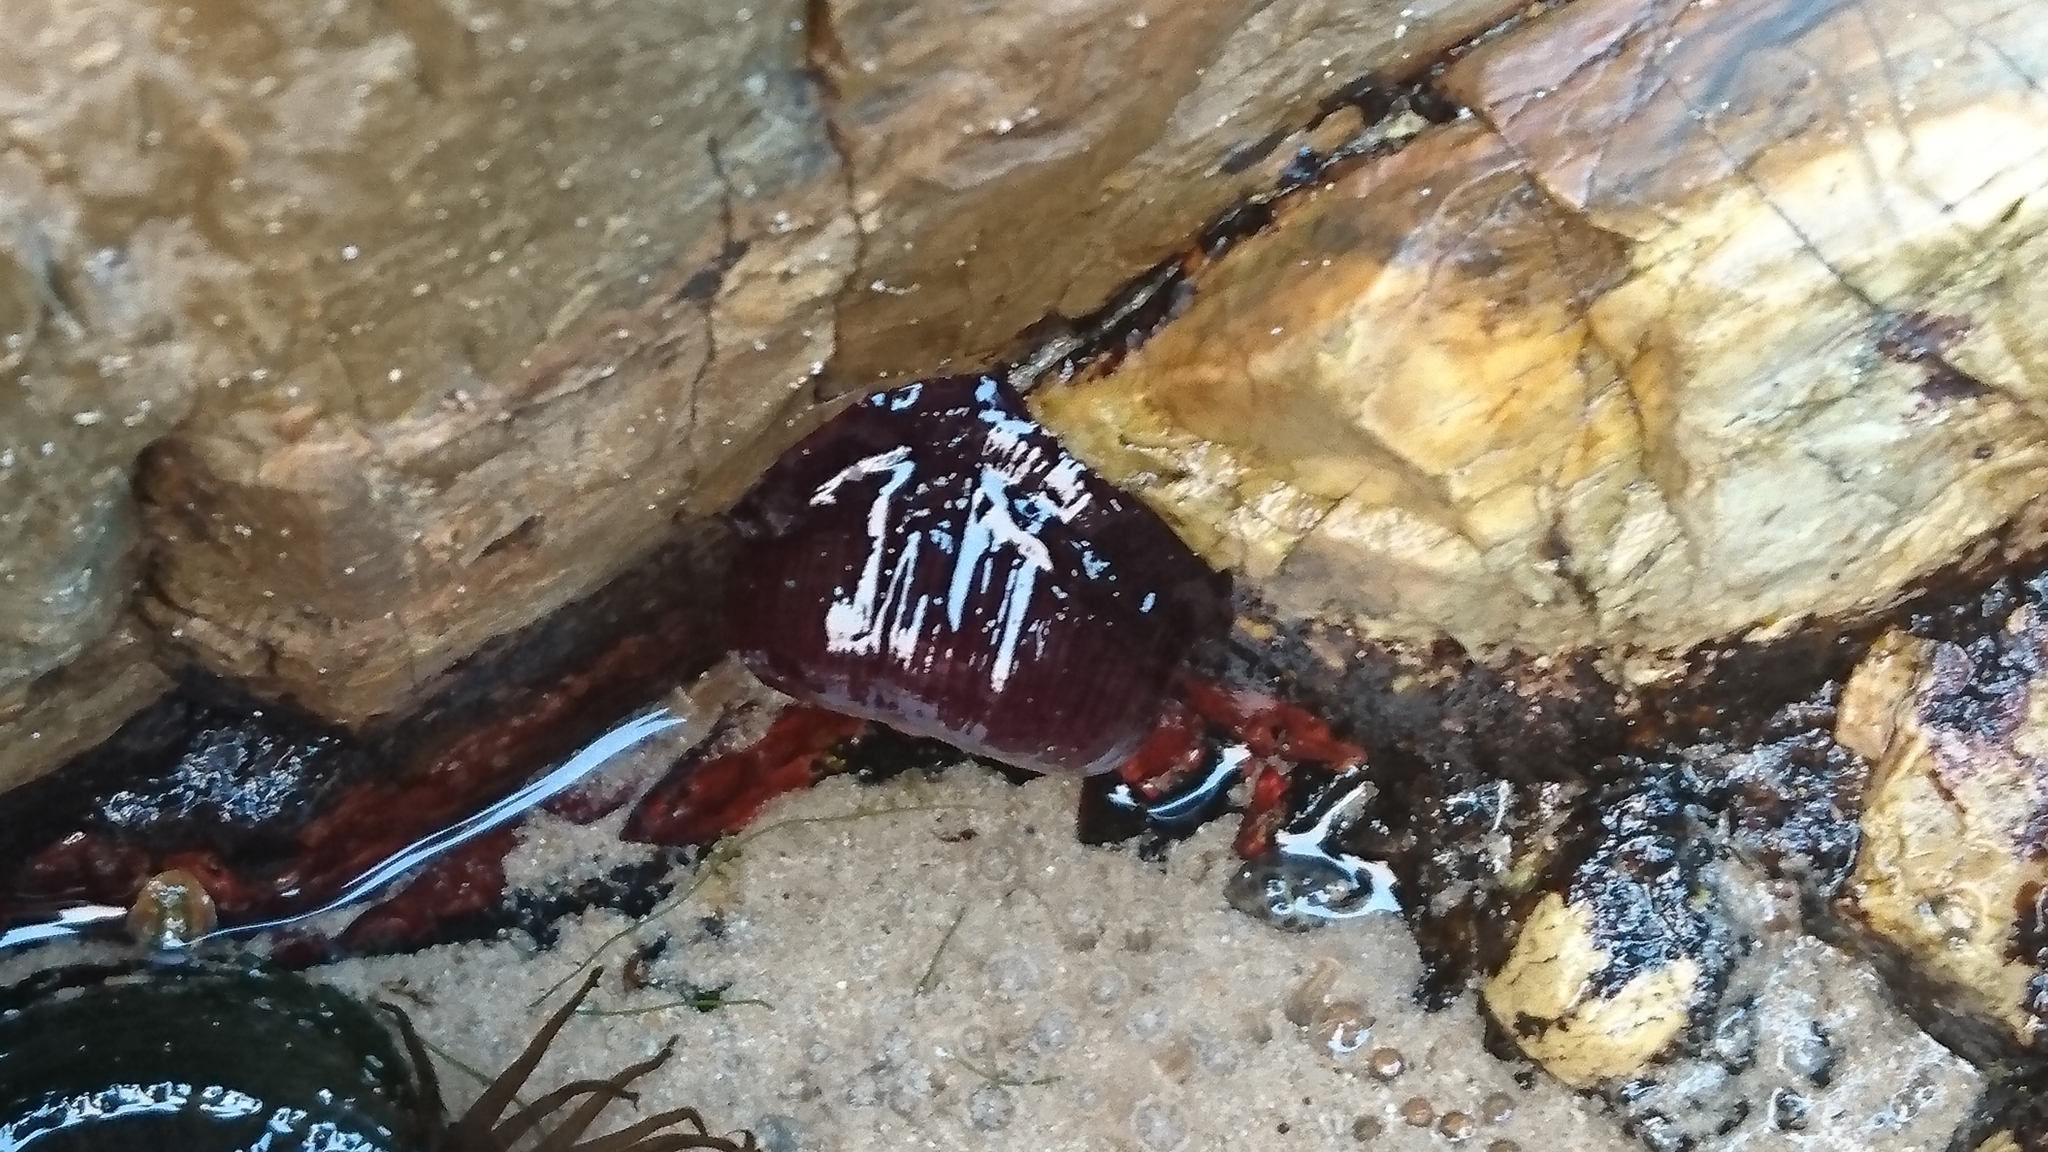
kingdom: Animalia
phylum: Cnidaria
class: Anthozoa
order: Actiniaria
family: Actiniidae
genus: Actinia
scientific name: Actinia tenebrosa
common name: Waratah anemone
